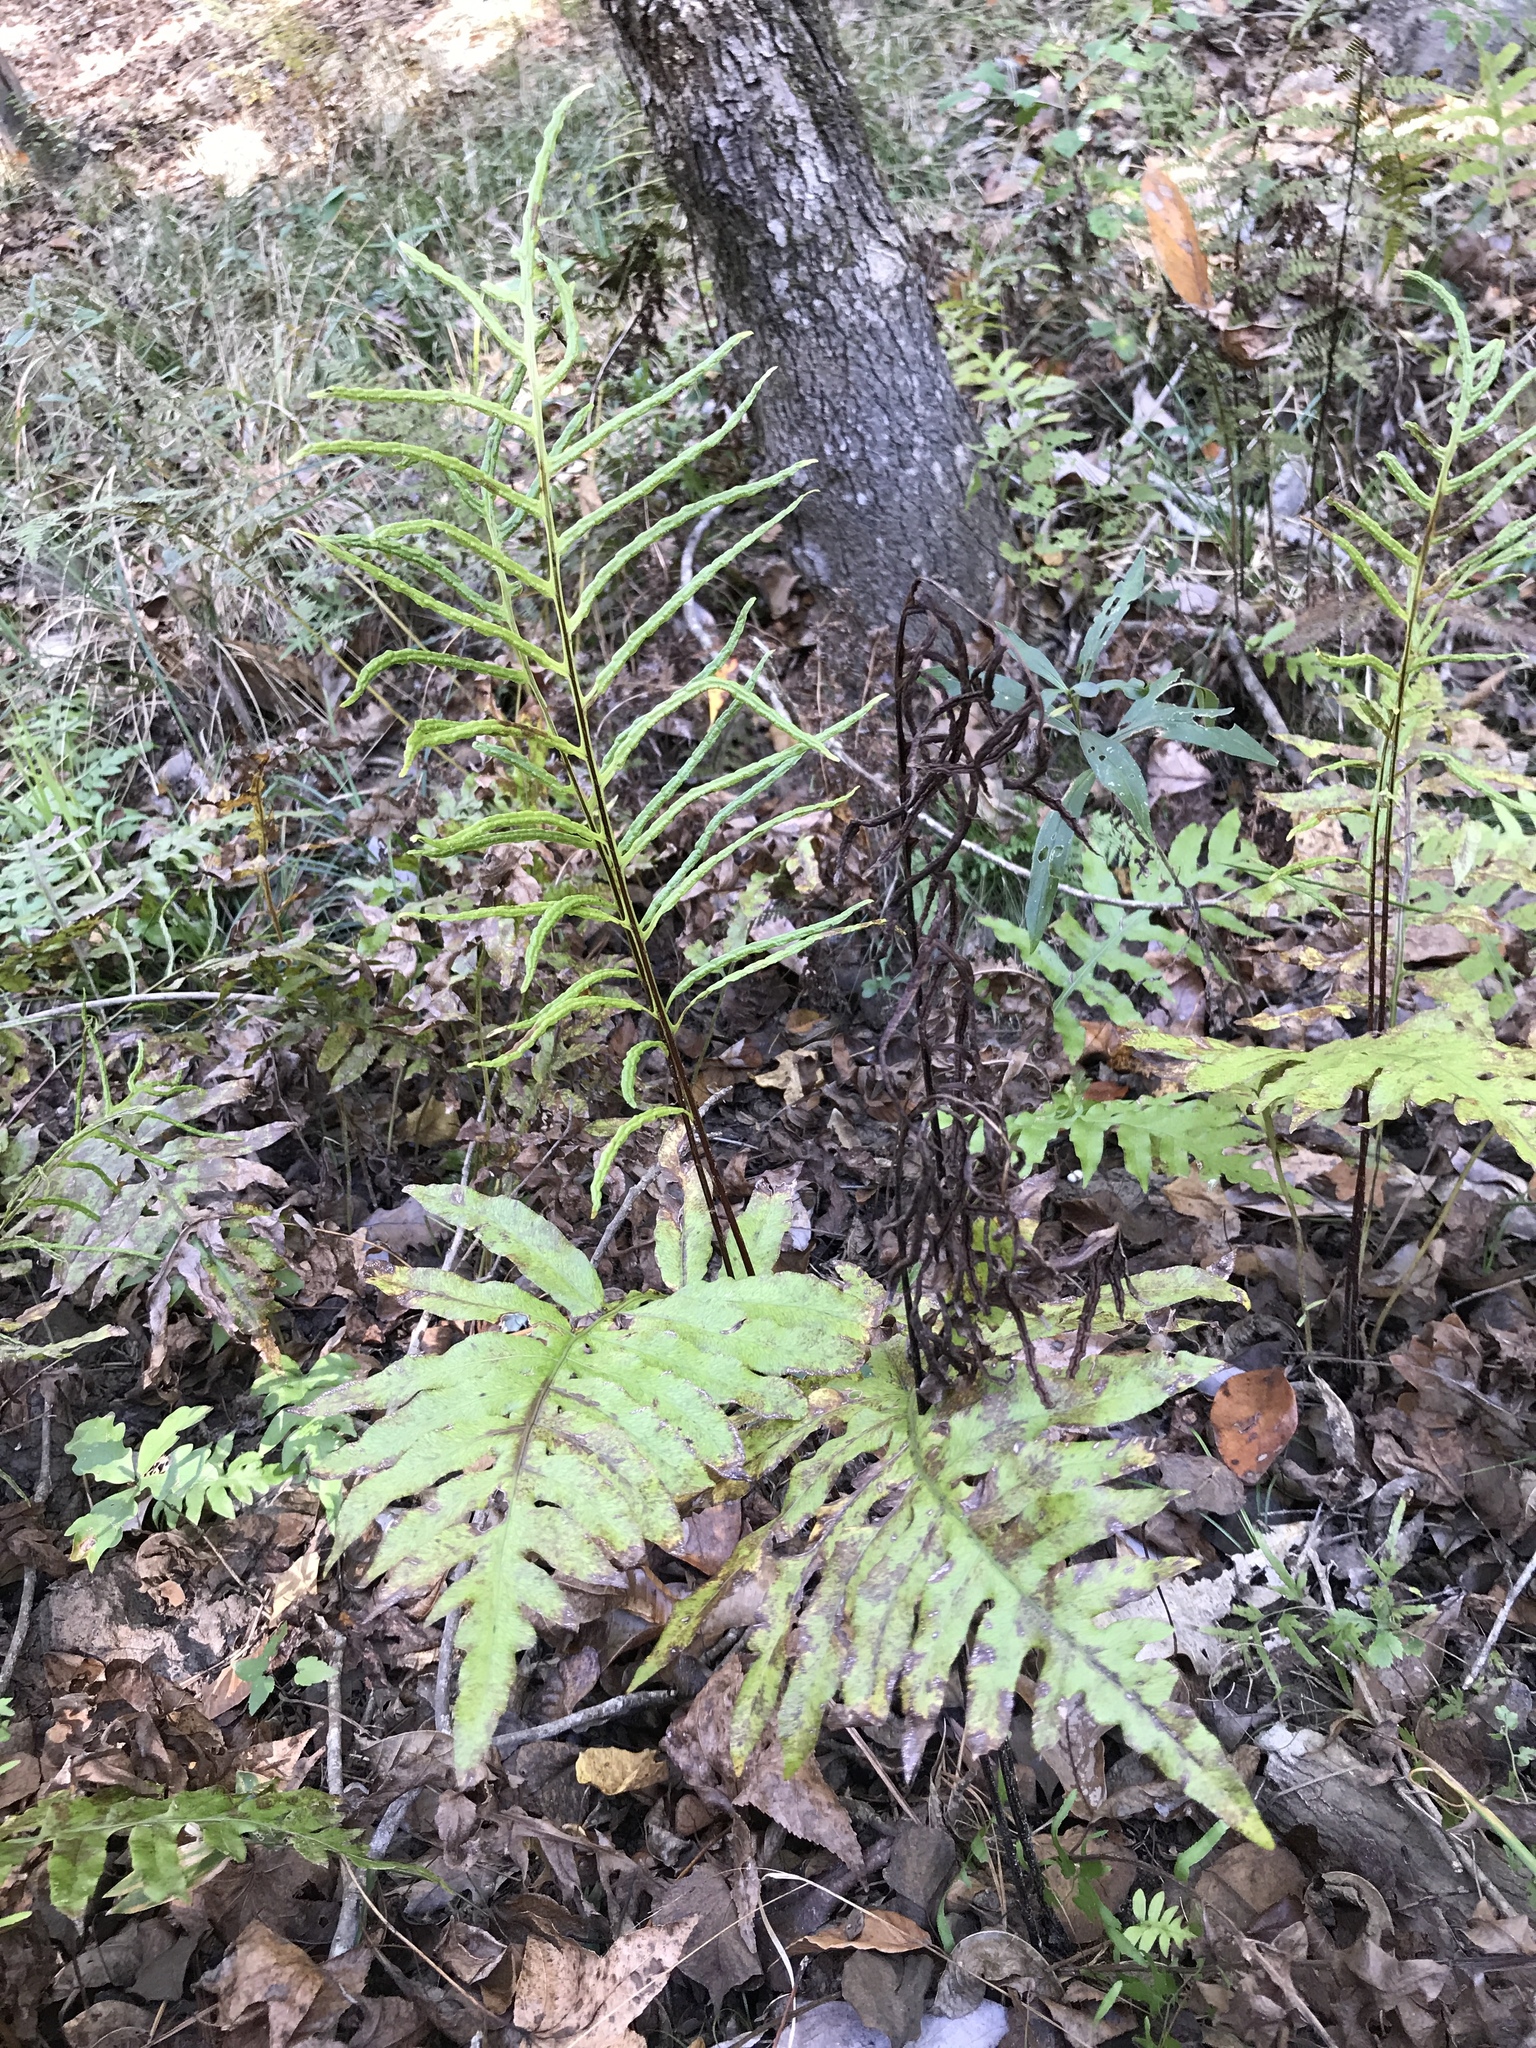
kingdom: Plantae
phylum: Tracheophyta
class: Polypodiopsida
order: Polypodiales
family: Blechnaceae
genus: Lorinseria
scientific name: Lorinseria areolata
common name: Dwarf chain fern
